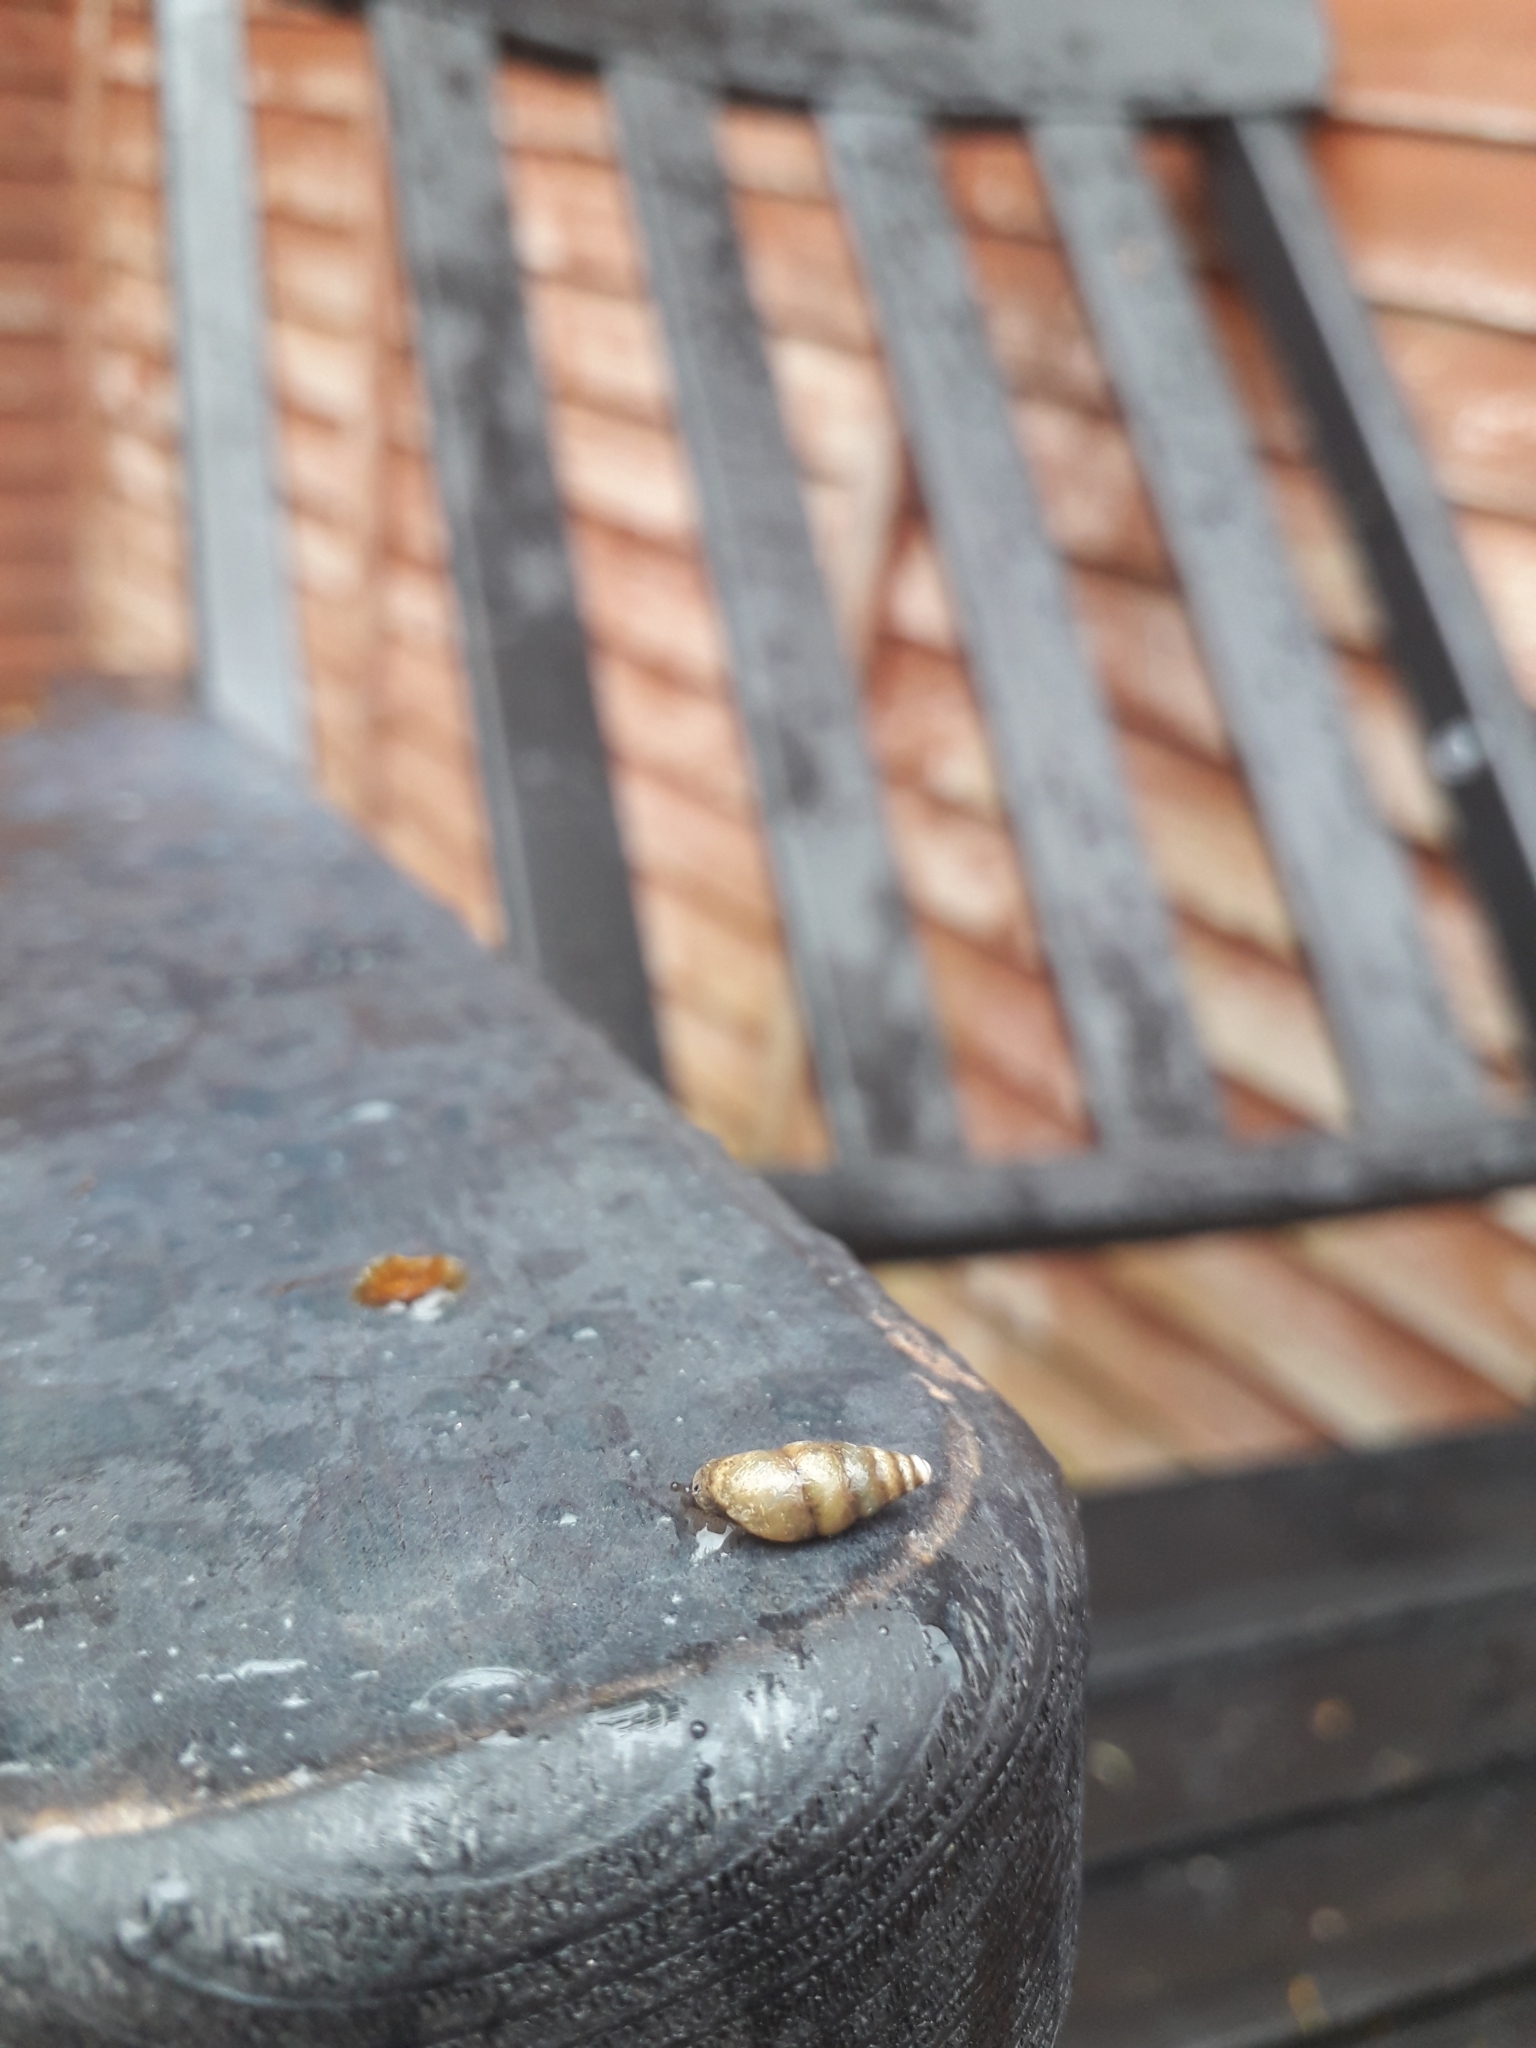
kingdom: Animalia
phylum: Mollusca
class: Gastropoda
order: Stylommatophora
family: Enidae
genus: Merdigera
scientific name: Merdigera obscura
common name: Lesser bulin
